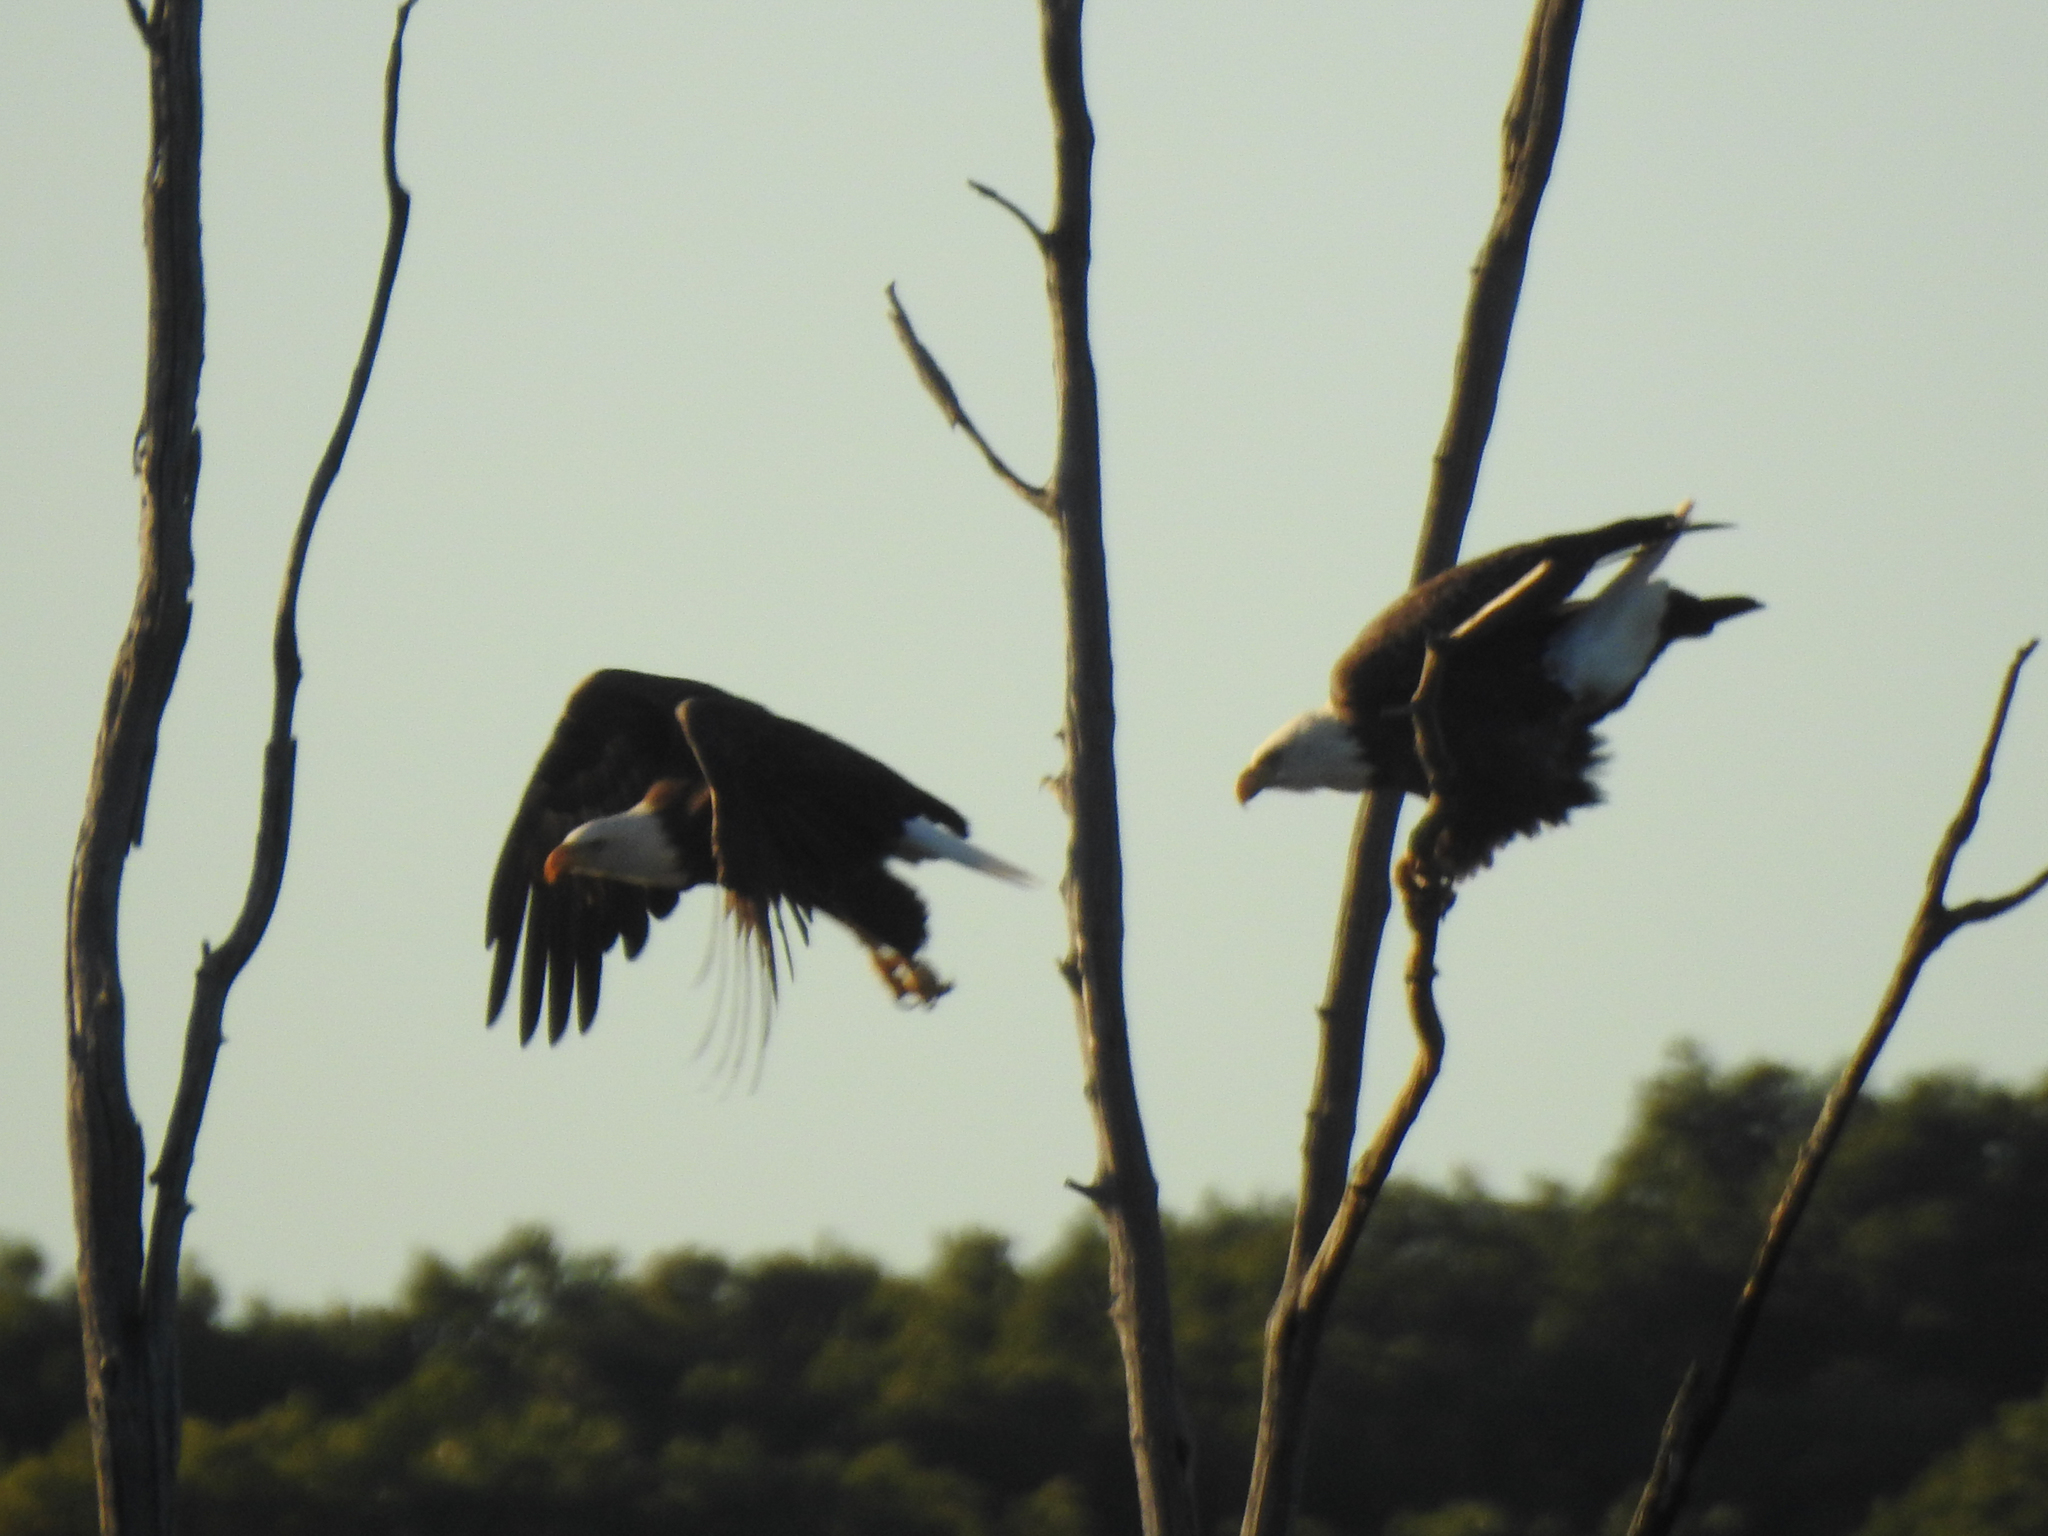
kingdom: Animalia
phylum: Chordata
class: Aves
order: Accipitriformes
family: Accipitridae
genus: Haliaeetus
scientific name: Haliaeetus leucocephalus
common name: Bald eagle
